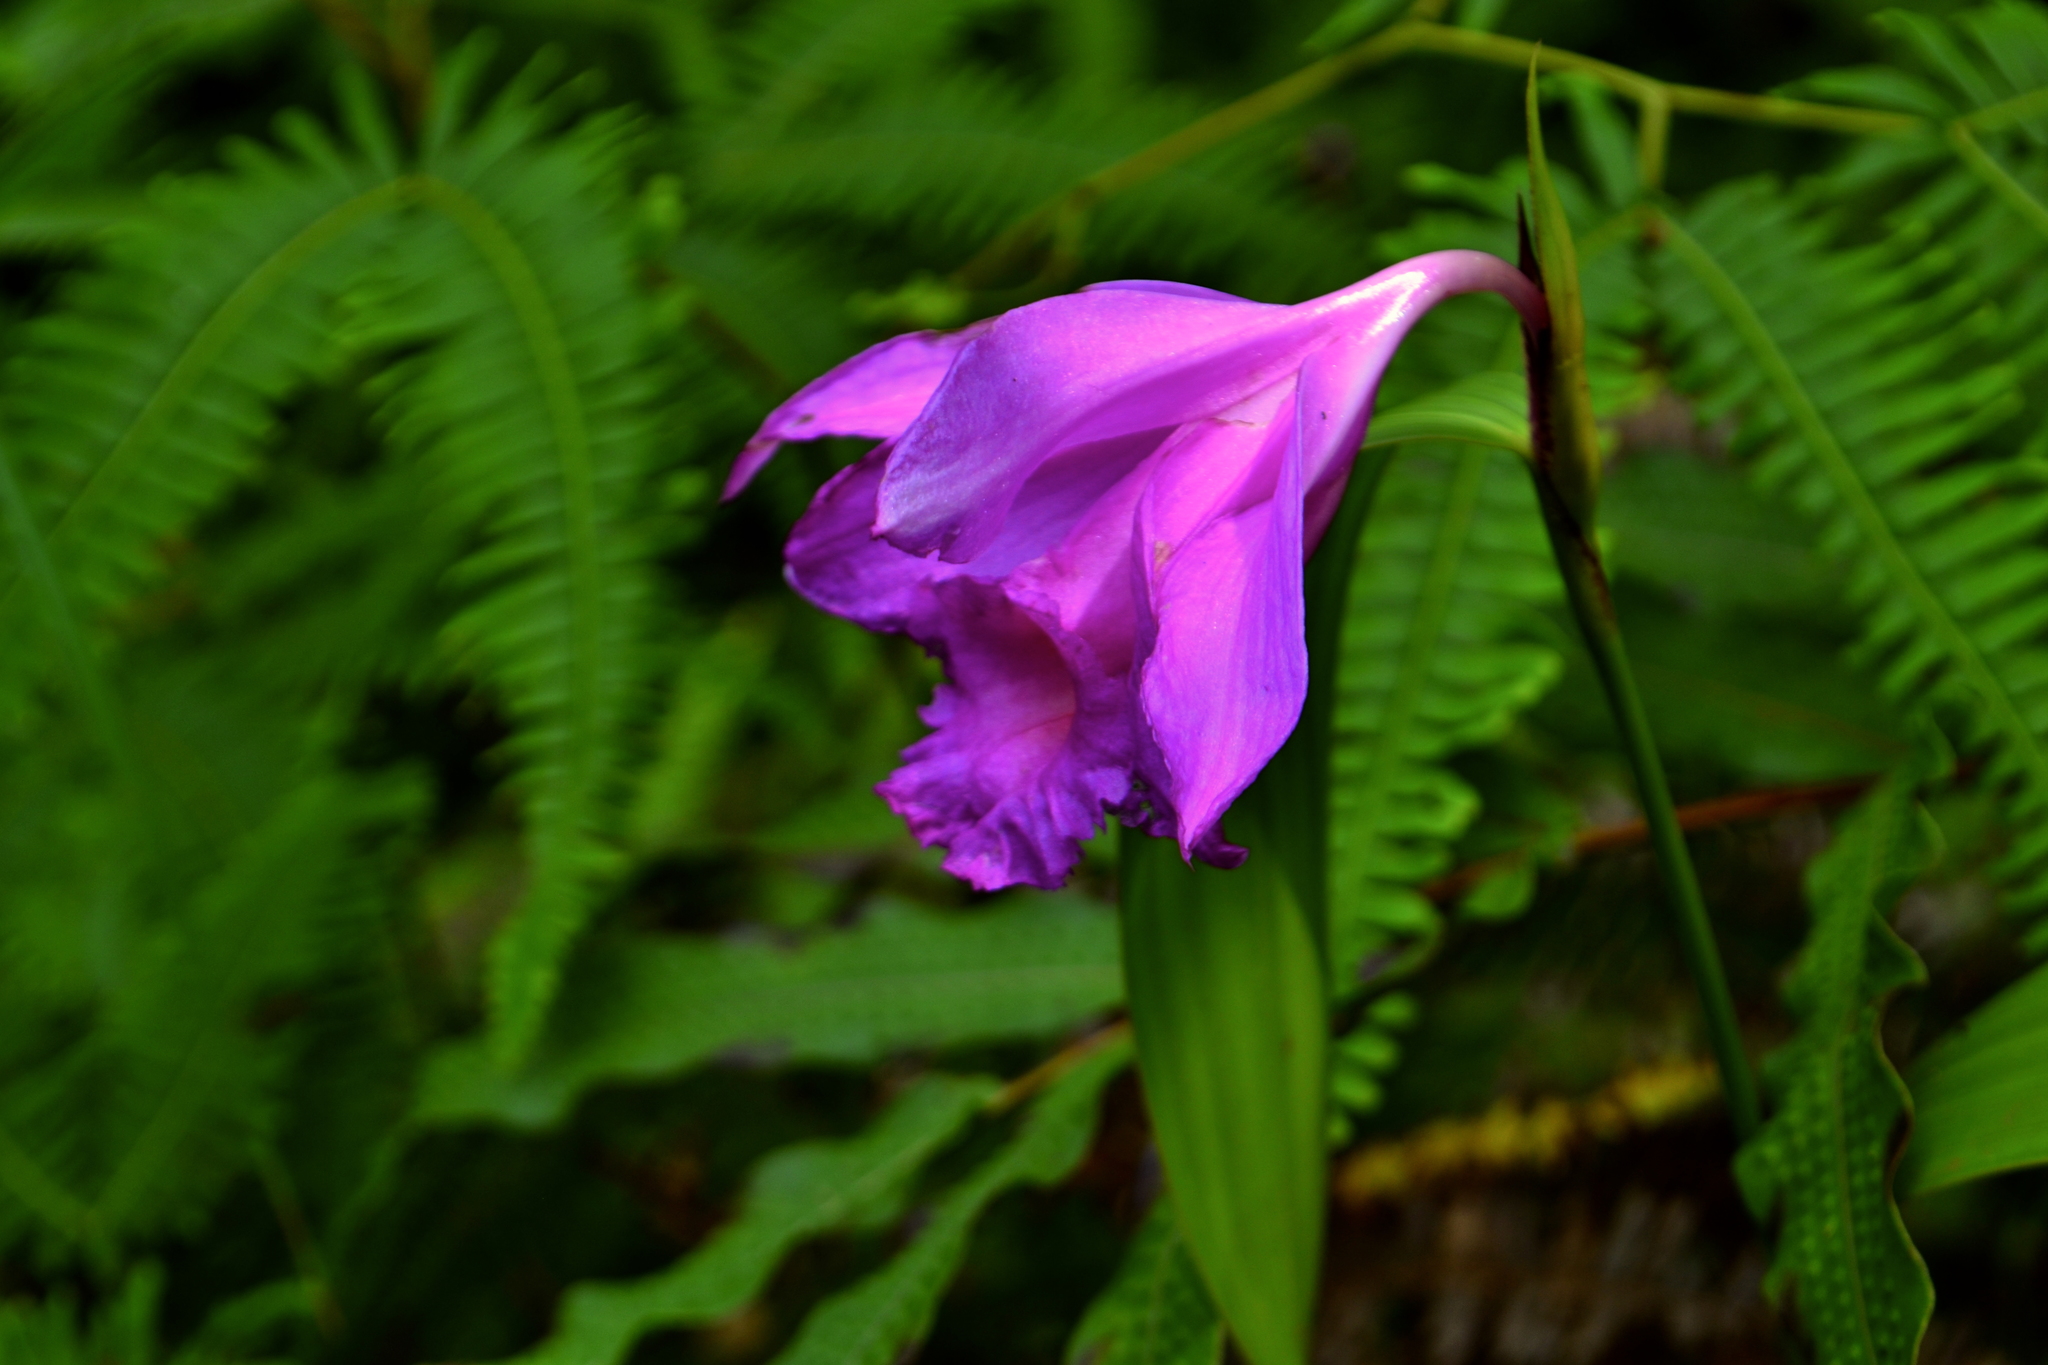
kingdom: Plantae
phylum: Tracheophyta
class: Liliopsida
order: Asparagales
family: Orchidaceae
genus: Sobralia
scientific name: Sobralia macrantha
